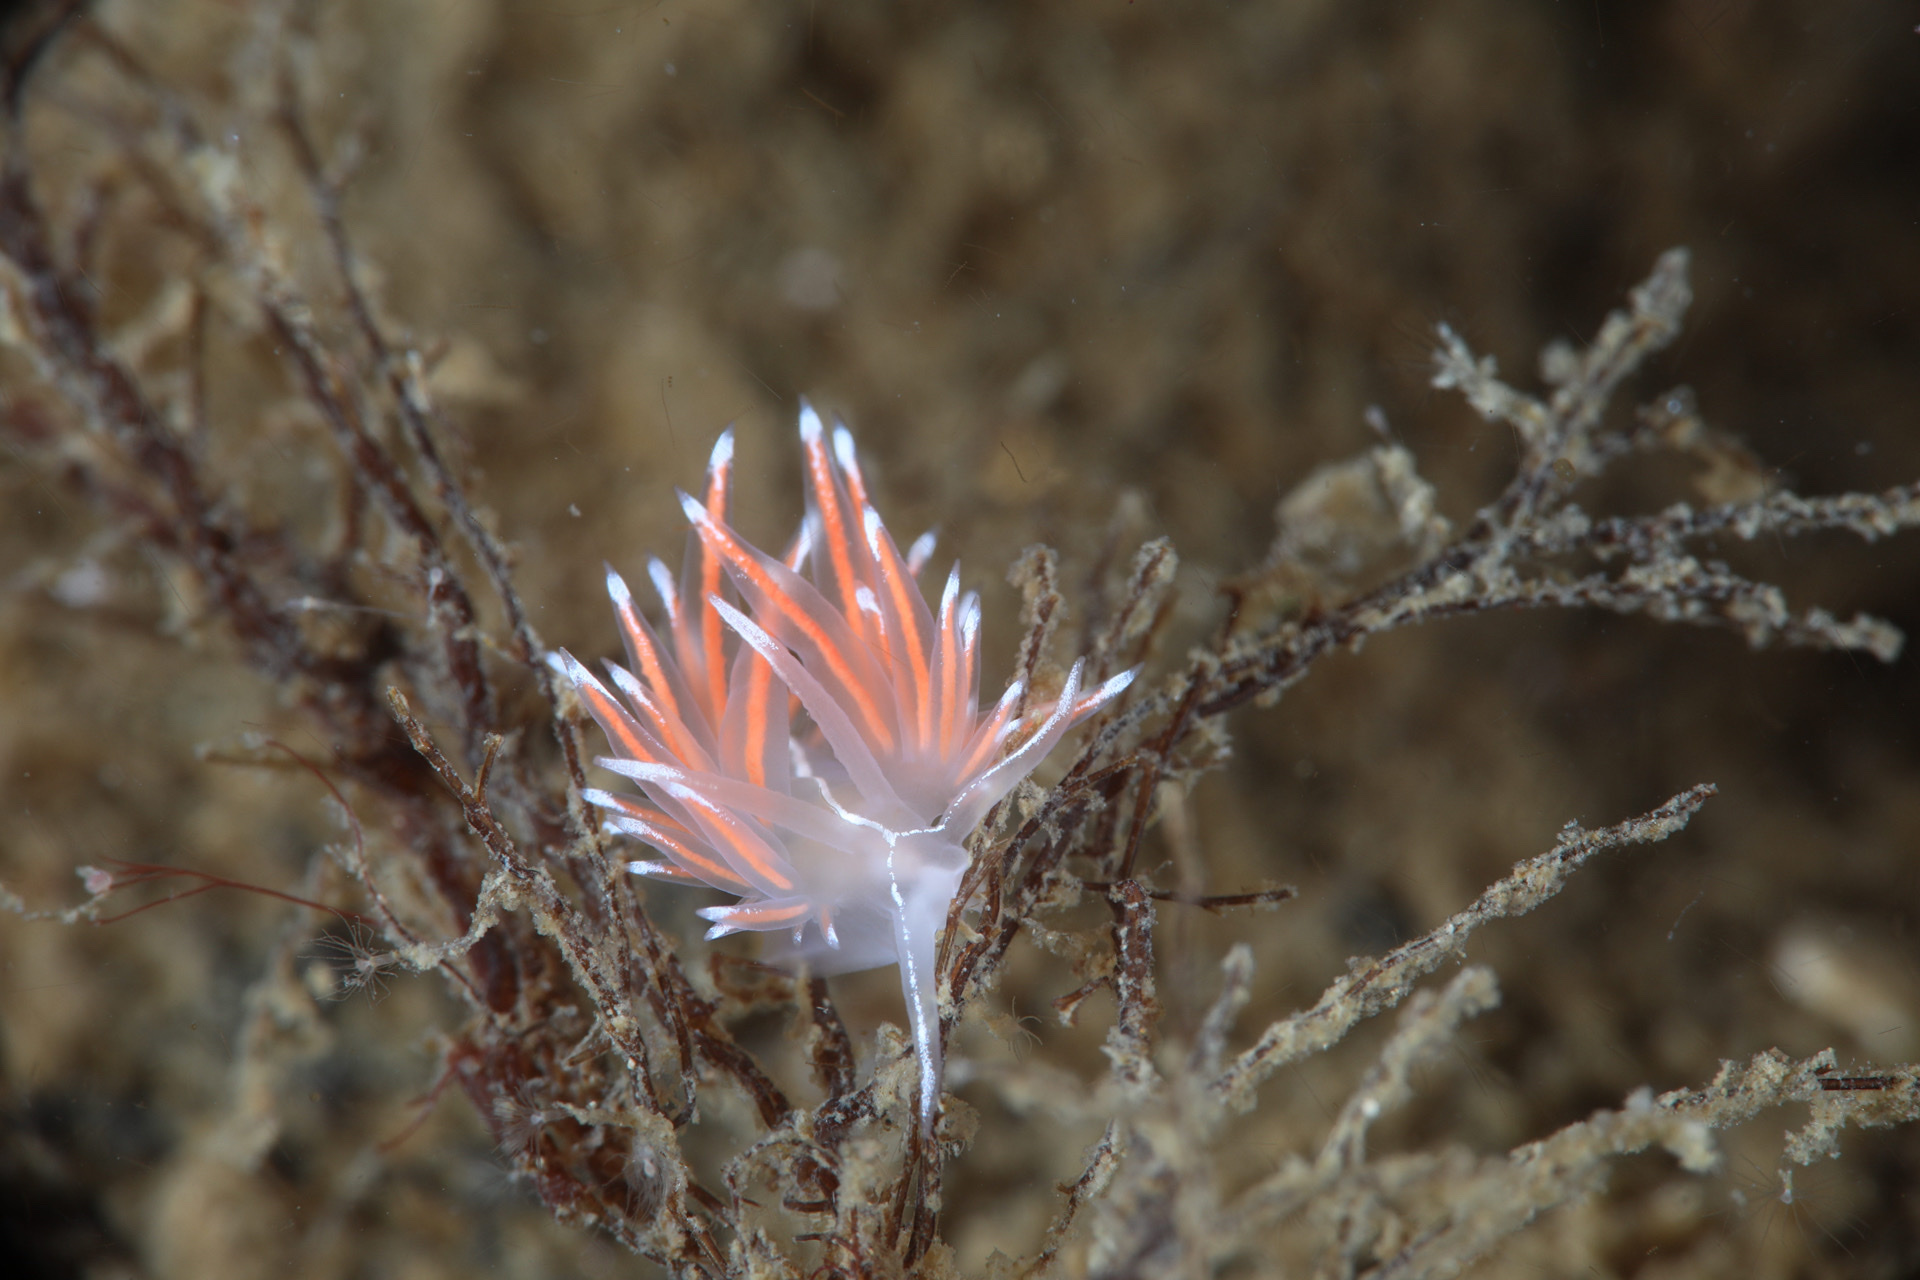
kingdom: Animalia
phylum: Mollusca
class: Gastropoda
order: Nudibranchia
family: Coryphellidae
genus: Coryphella
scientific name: Coryphella lineata
